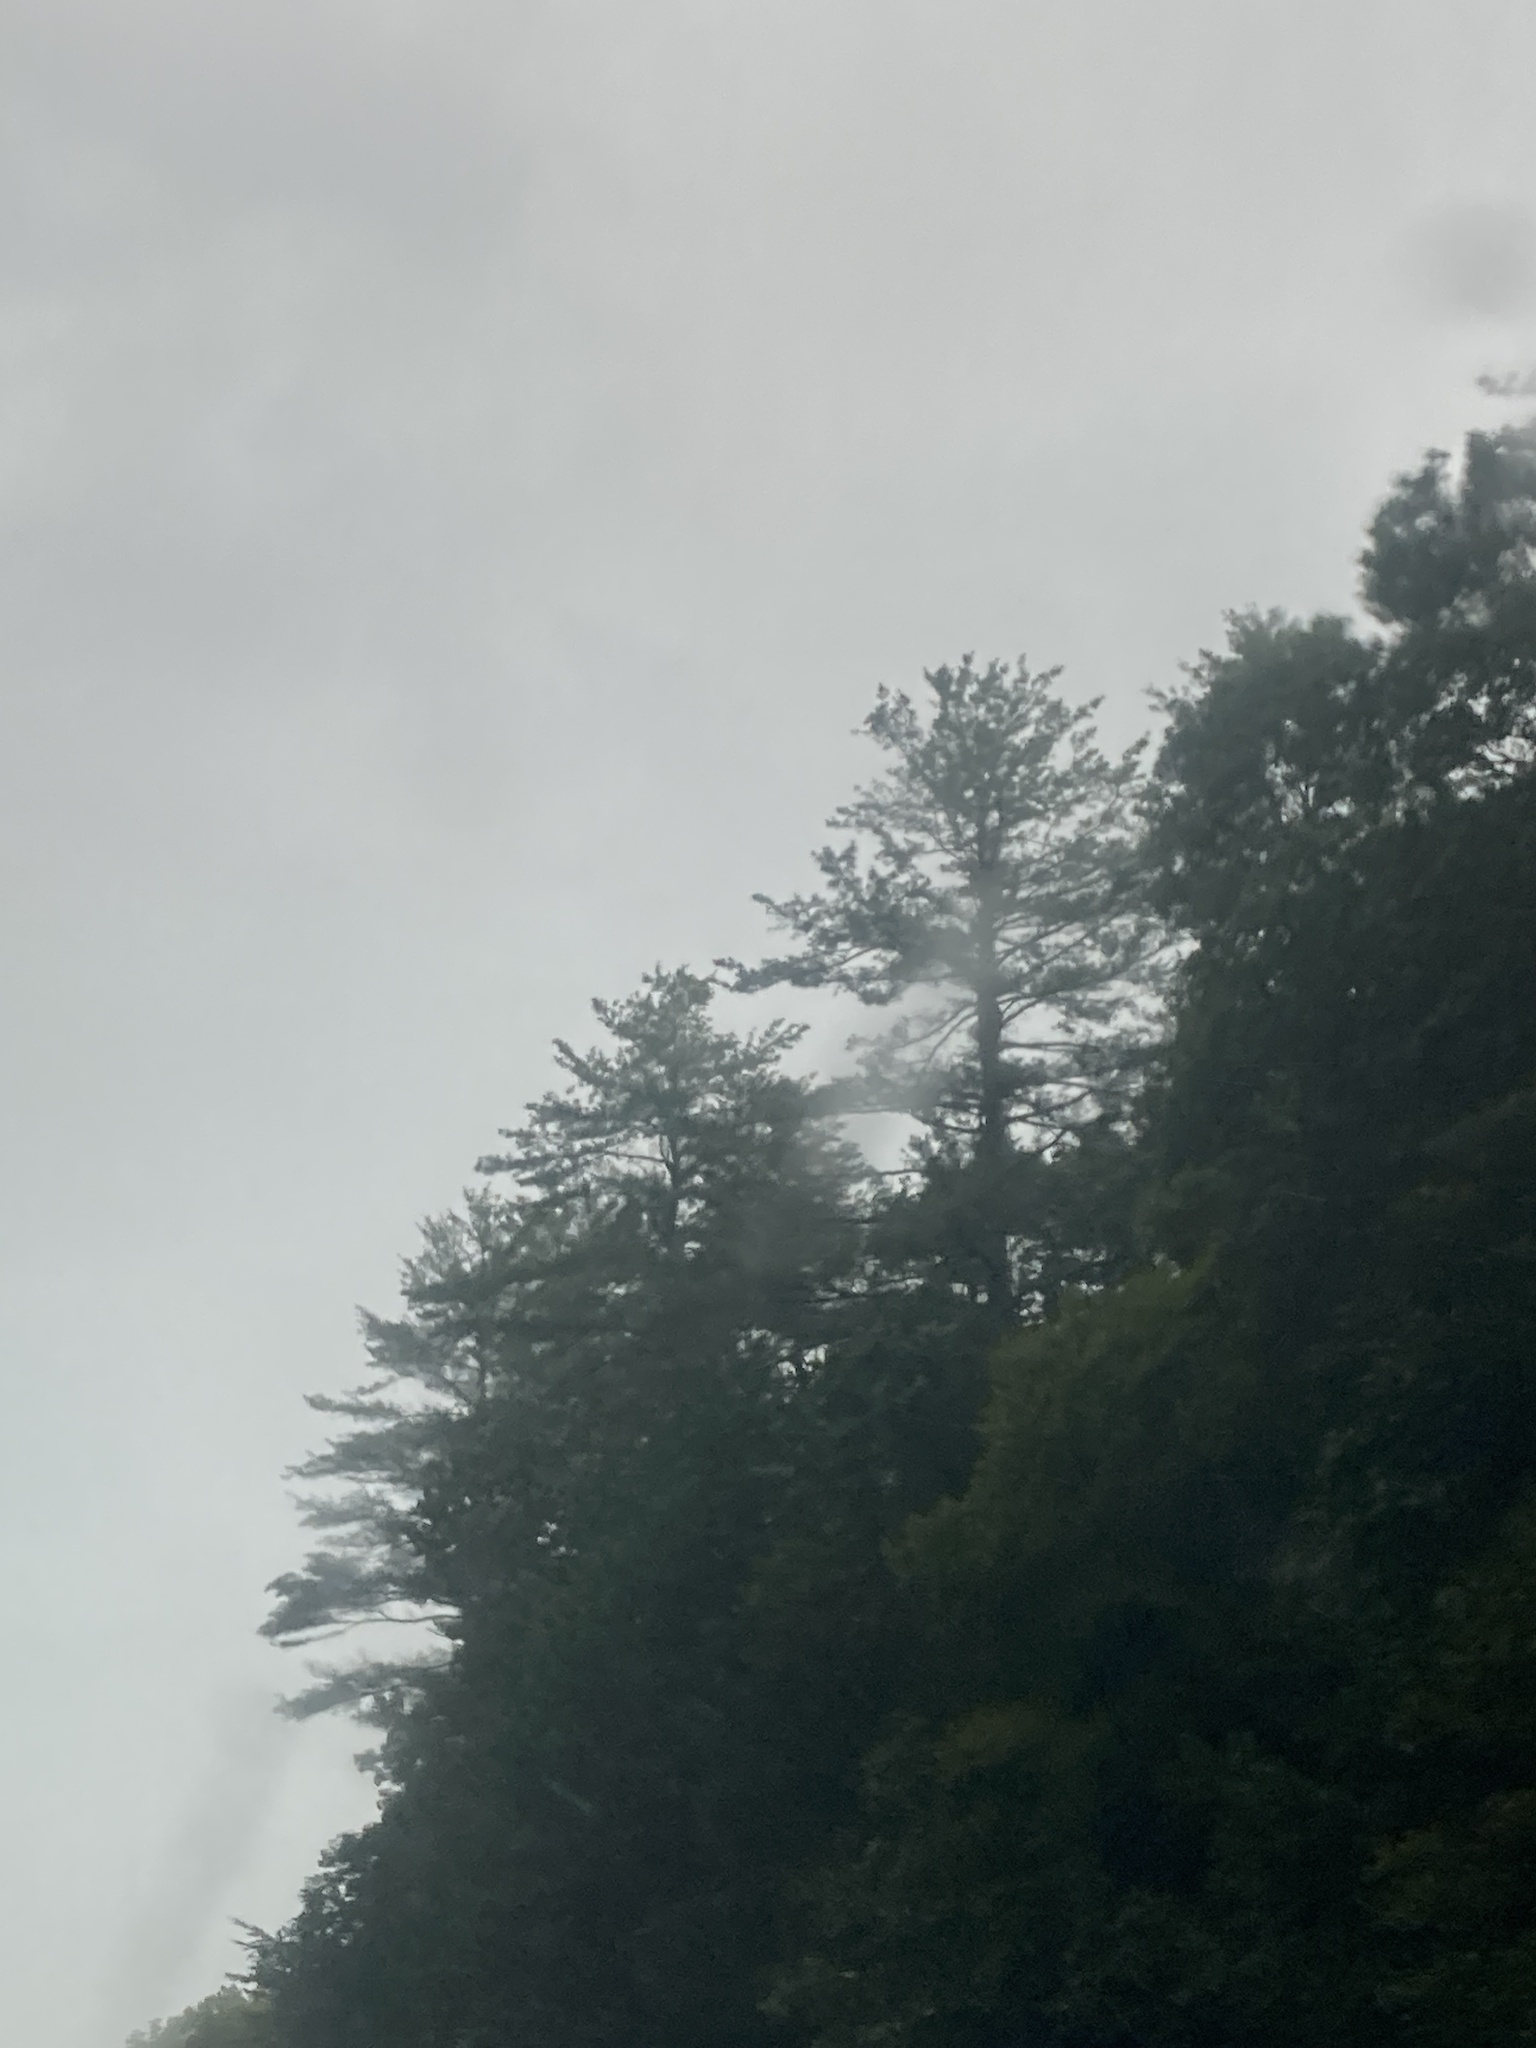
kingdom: Plantae
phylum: Tracheophyta
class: Pinopsida
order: Pinales
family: Pinaceae
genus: Pinus
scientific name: Pinus strobus
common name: Weymouth pine
